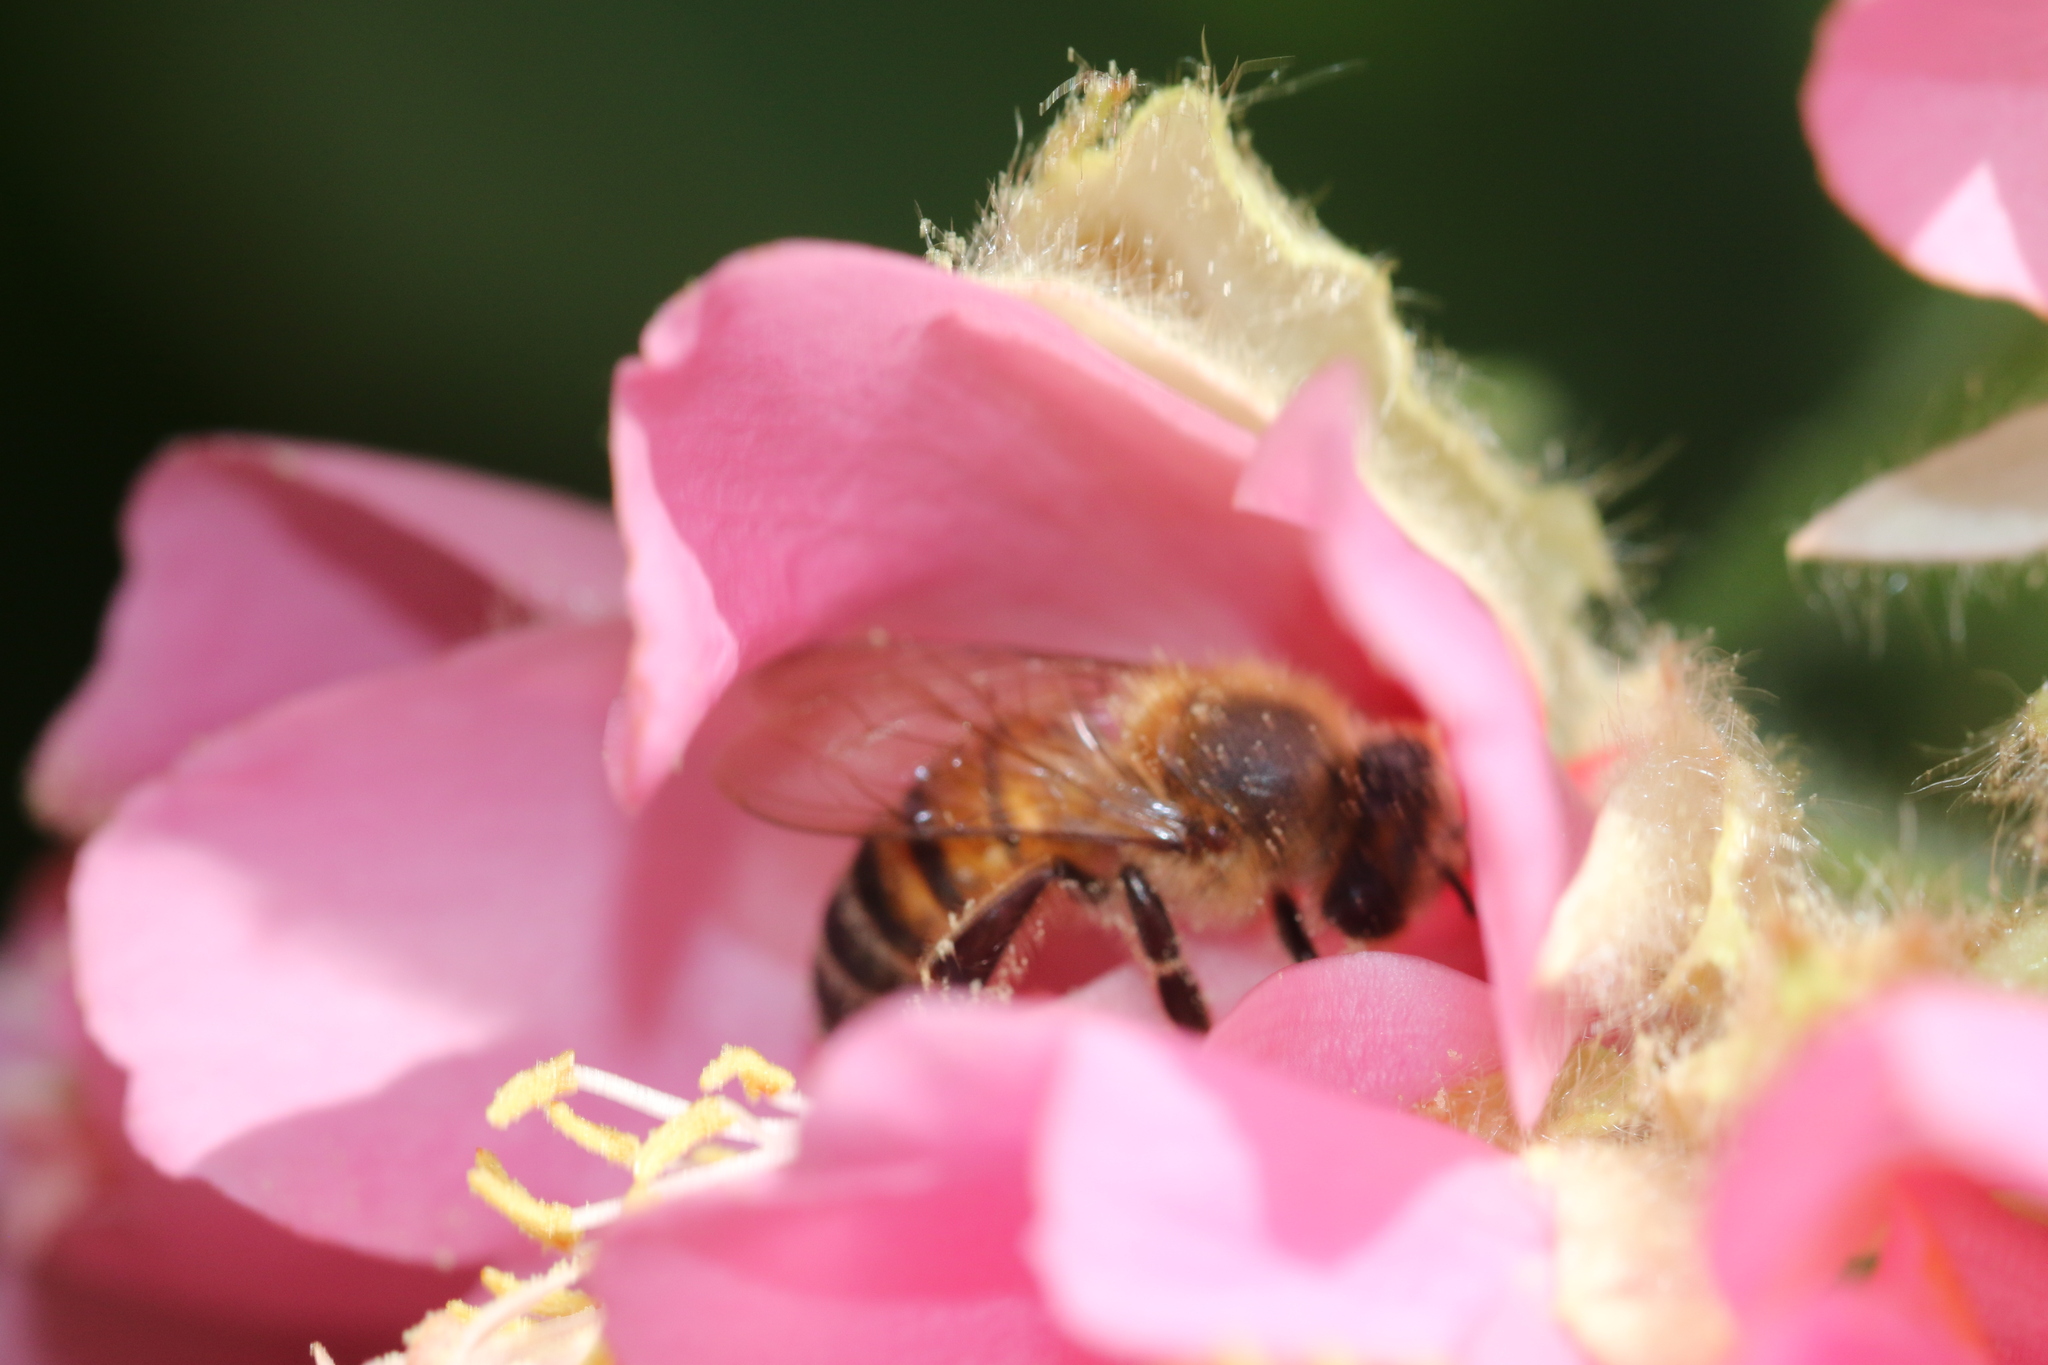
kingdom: Animalia
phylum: Arthropoda
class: Insecta
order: Hymenoptera
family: Apidae
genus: Apis
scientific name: Apis mellifera
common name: Honey bee
